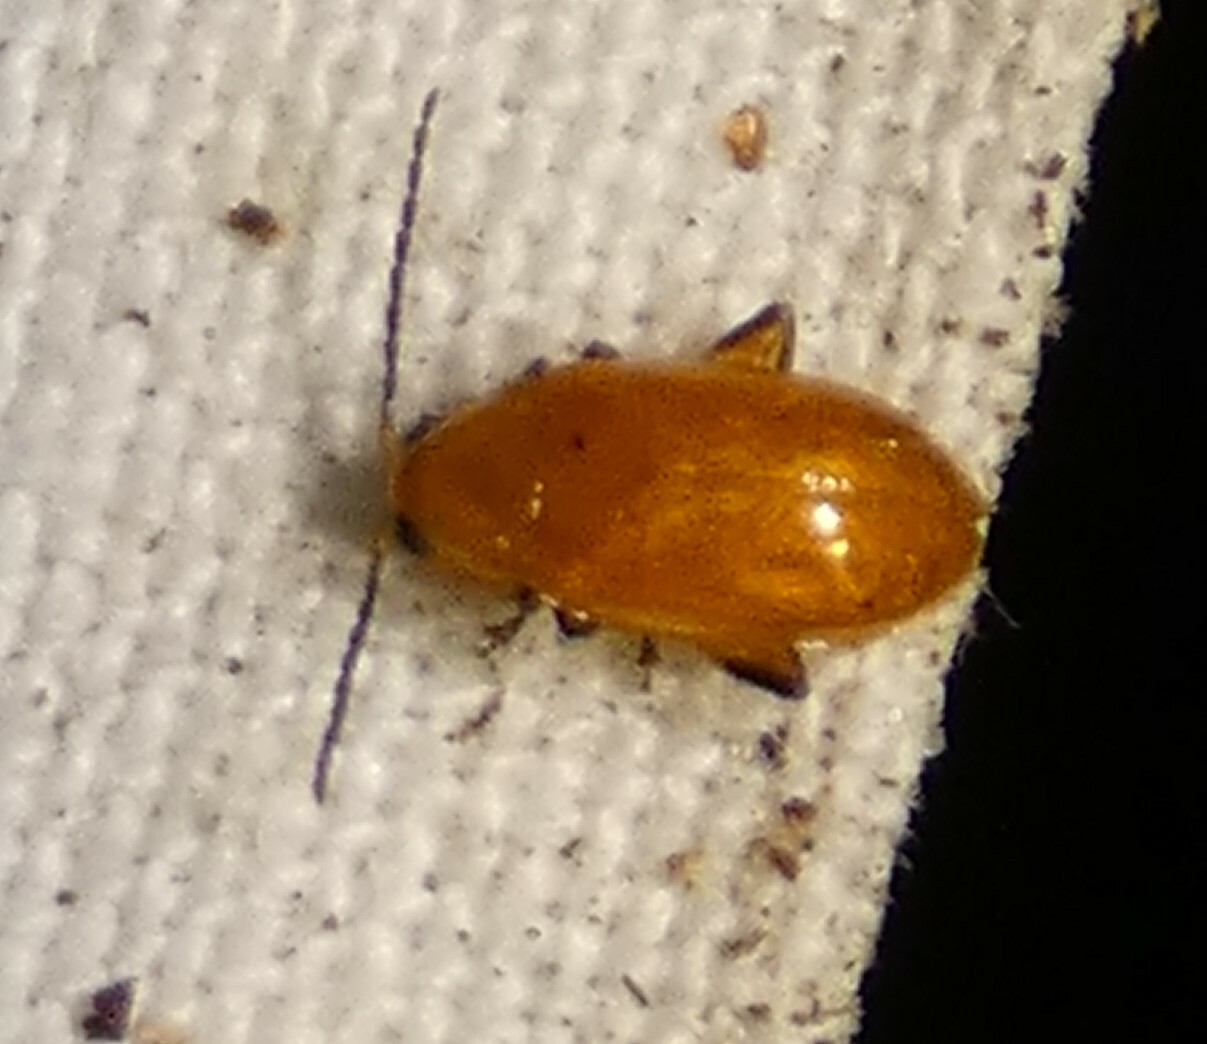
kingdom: Animalia
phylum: Arthropoda
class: Insecta
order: Coleoptera
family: Chrysomelidae
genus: Parchicola
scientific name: Parchicola tibialis
